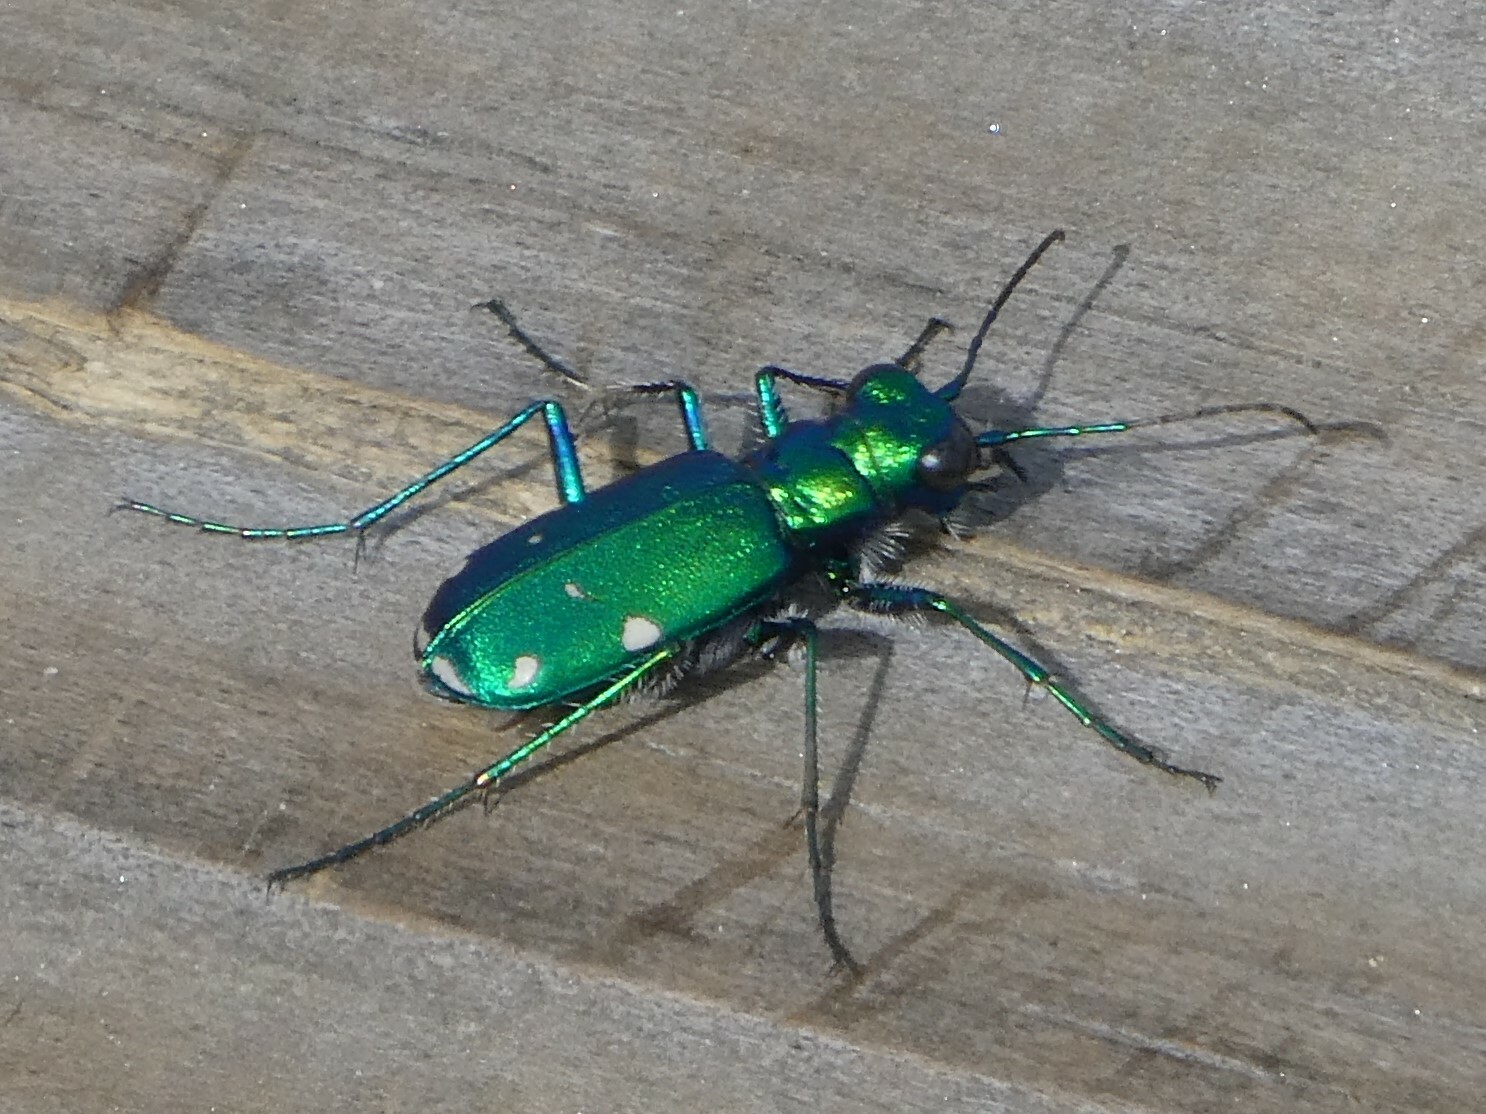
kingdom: Animalia
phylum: Arthropoda
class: Insecta
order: Coleoptera
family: Carabidae
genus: Cicindela
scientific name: Cicindela sexguttata
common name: Six-spotted tiger beetle
